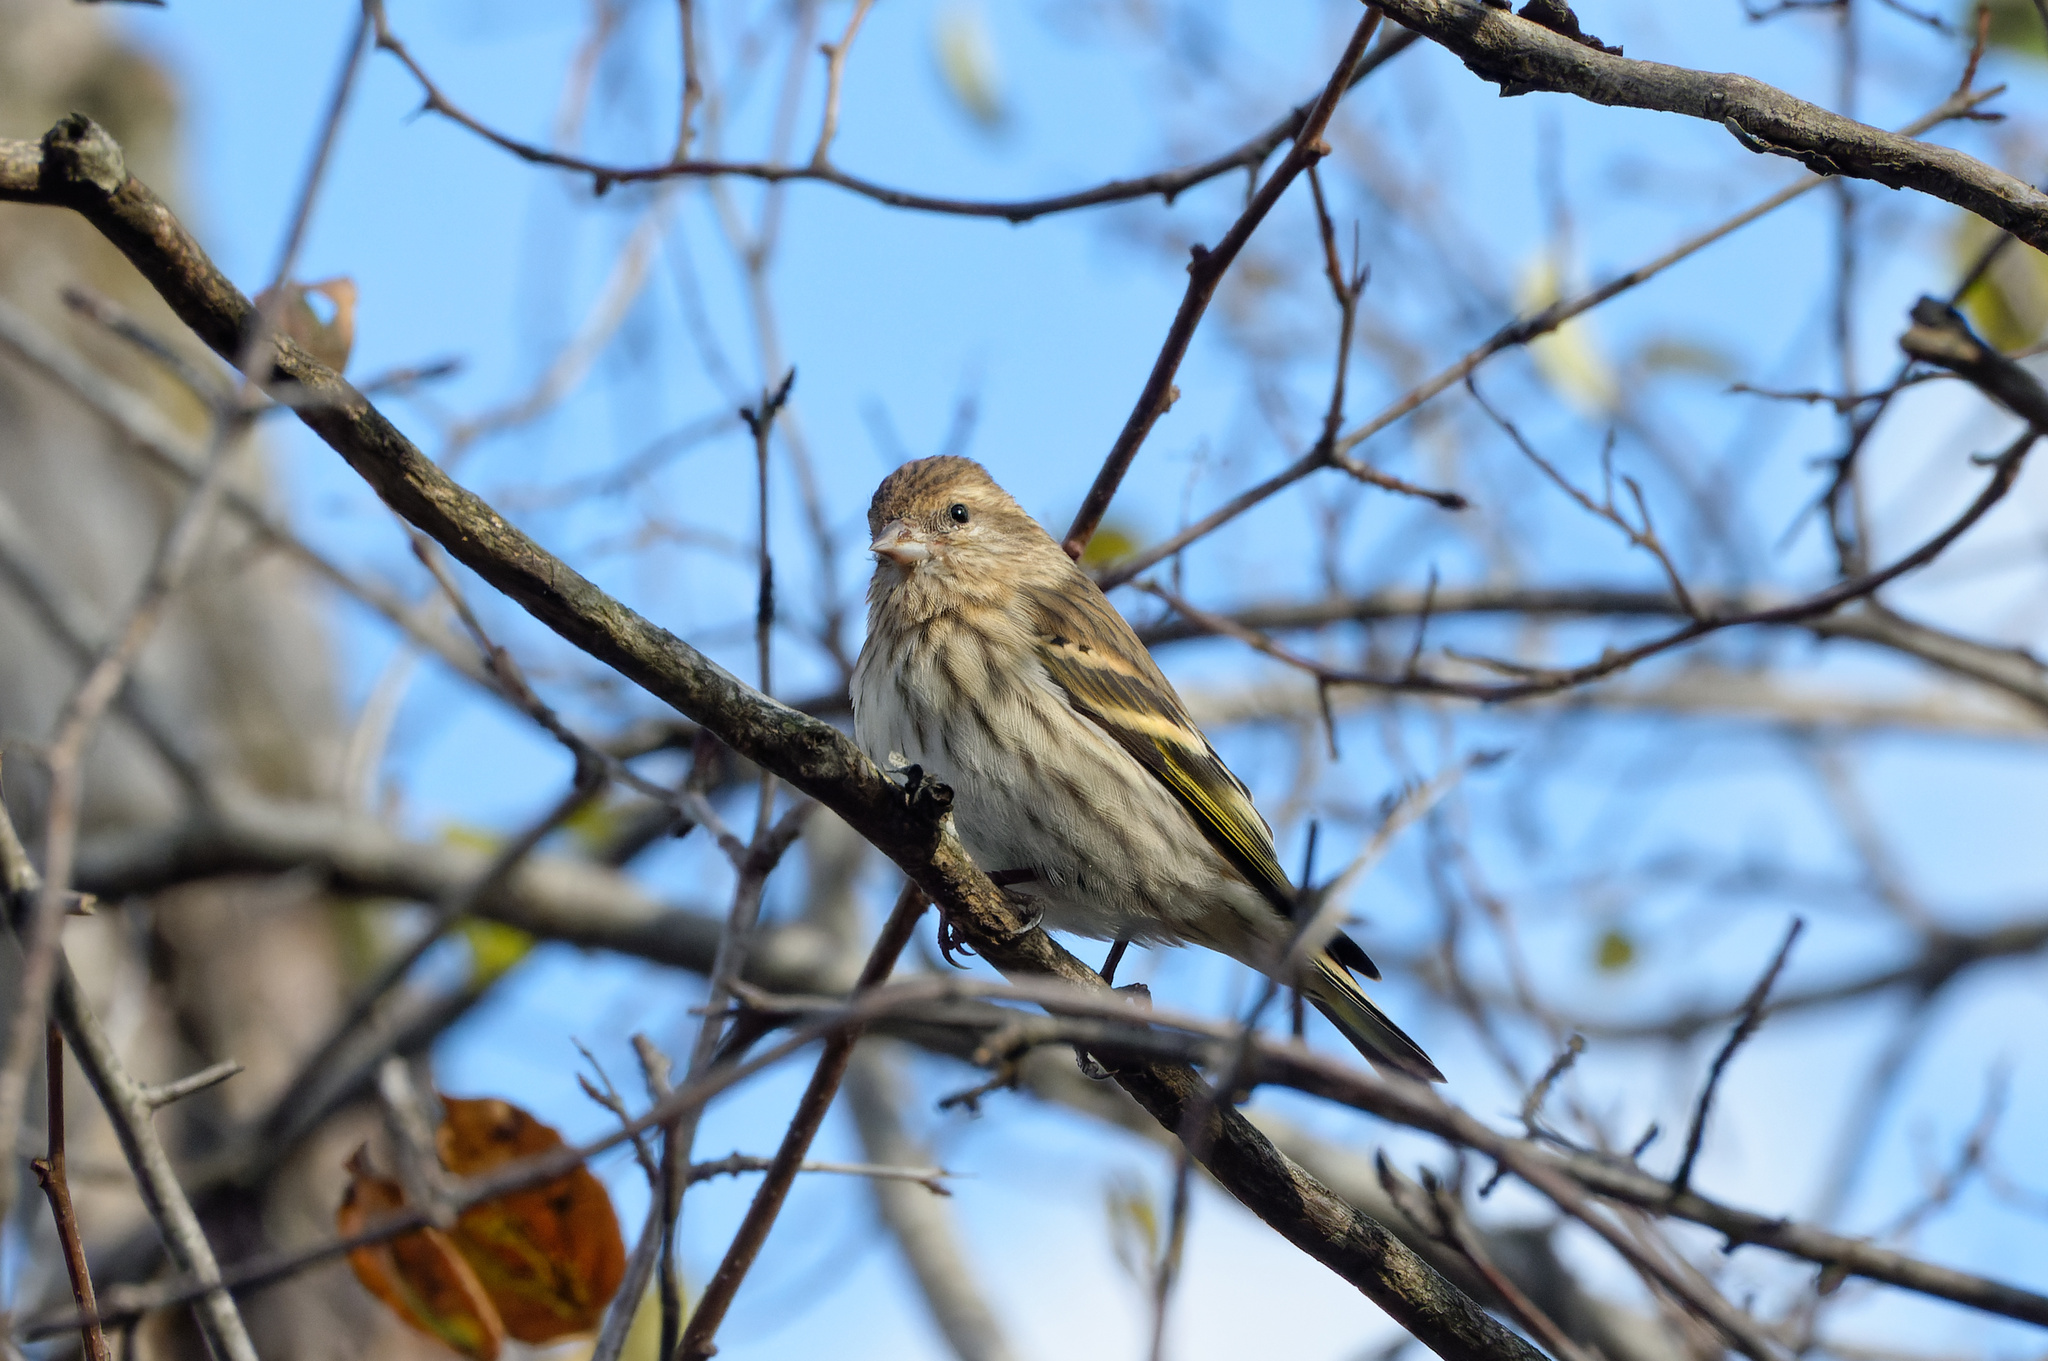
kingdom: Animalia
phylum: Chordata
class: Aves
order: Passeriformes
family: Fringillidae
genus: Spinus
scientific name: Spinus pinus
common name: Pine siskin
